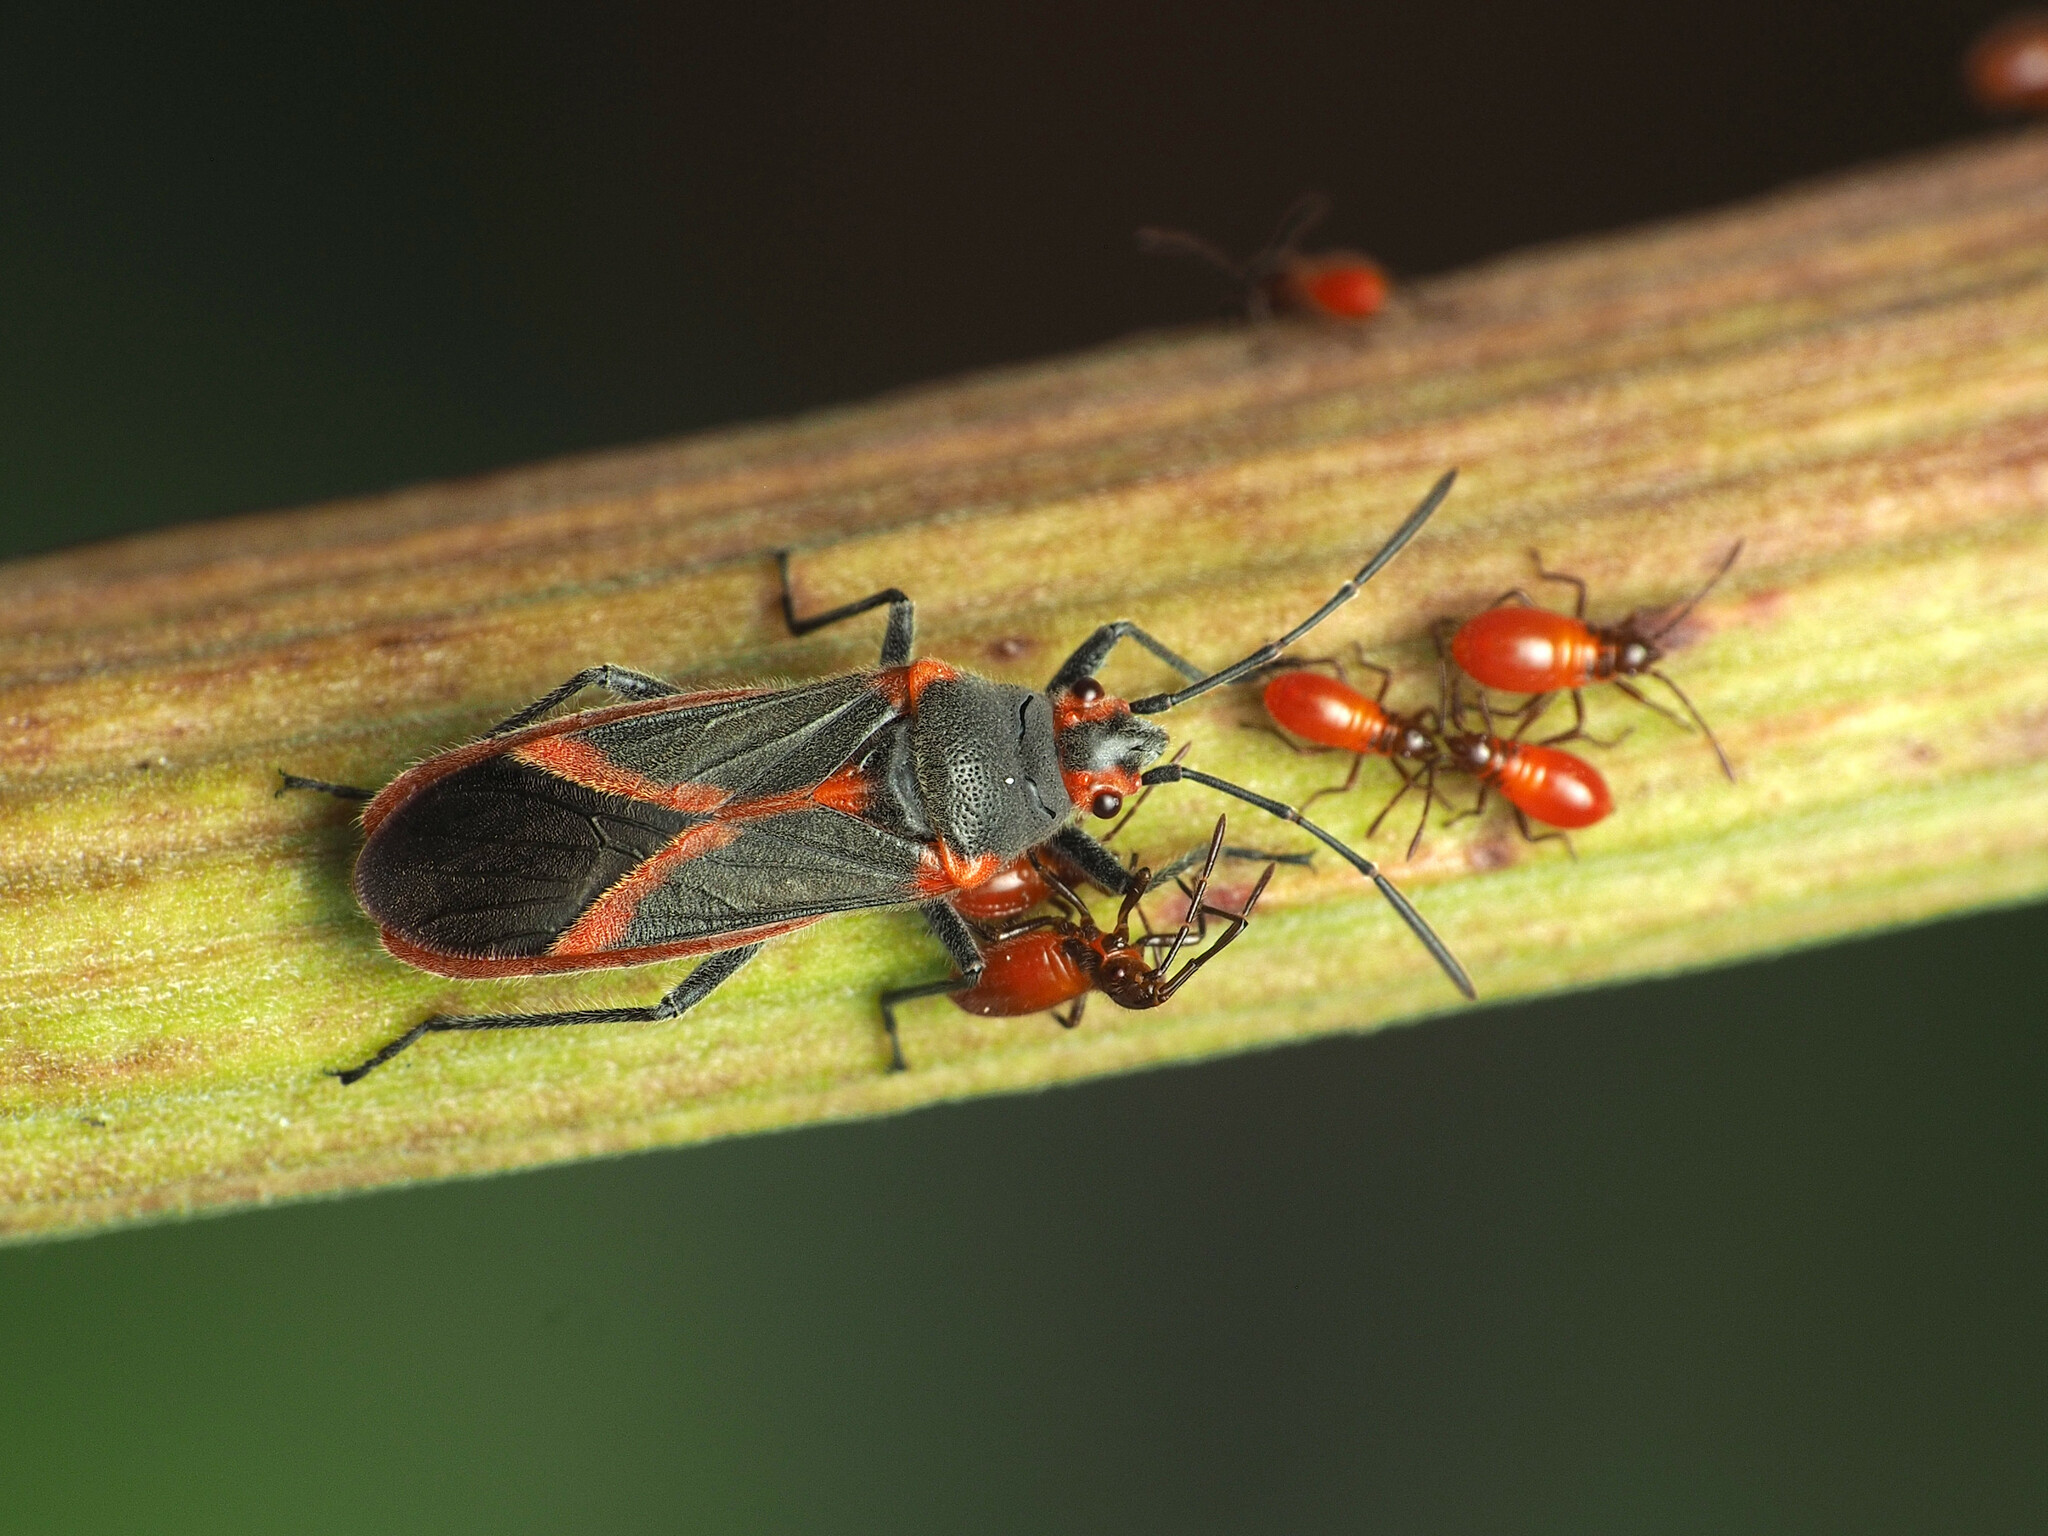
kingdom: Animalia
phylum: Arthropoda
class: Insecta
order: Hemiptera
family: Lygaeidae
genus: Caenocoris
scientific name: Caenocoris nerii
